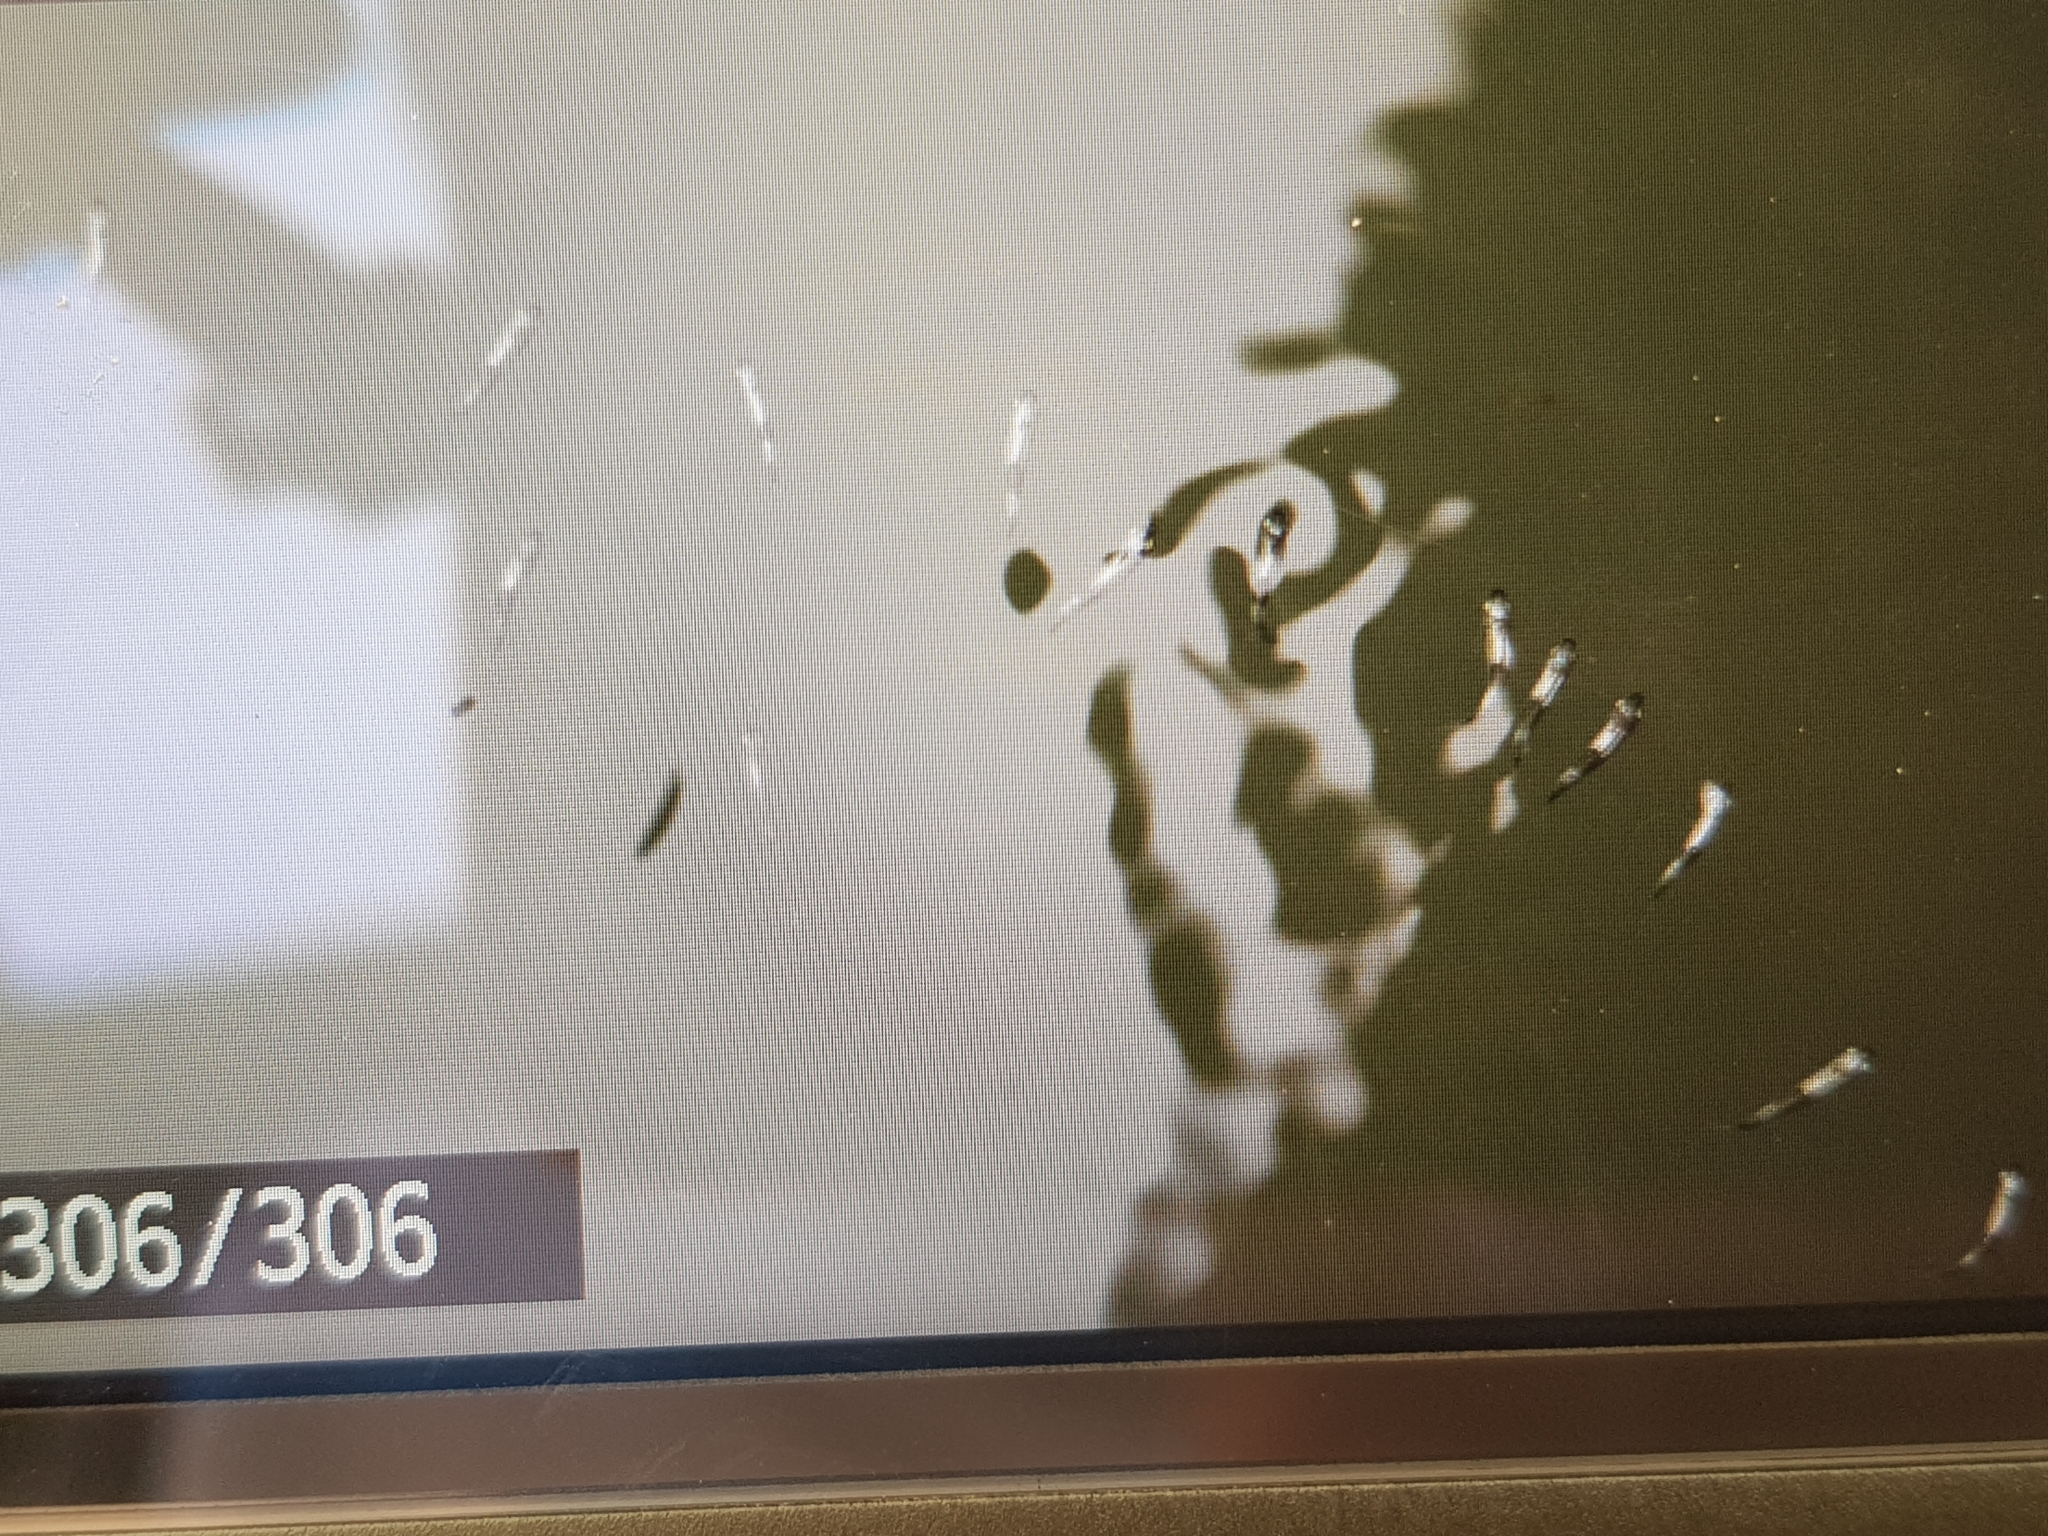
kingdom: Animalia
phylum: Chordata
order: Mugiliformes
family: Mugilidae
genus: Gracilimugil
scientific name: Gracilimugil argenteus
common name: Flat-tail mullet
